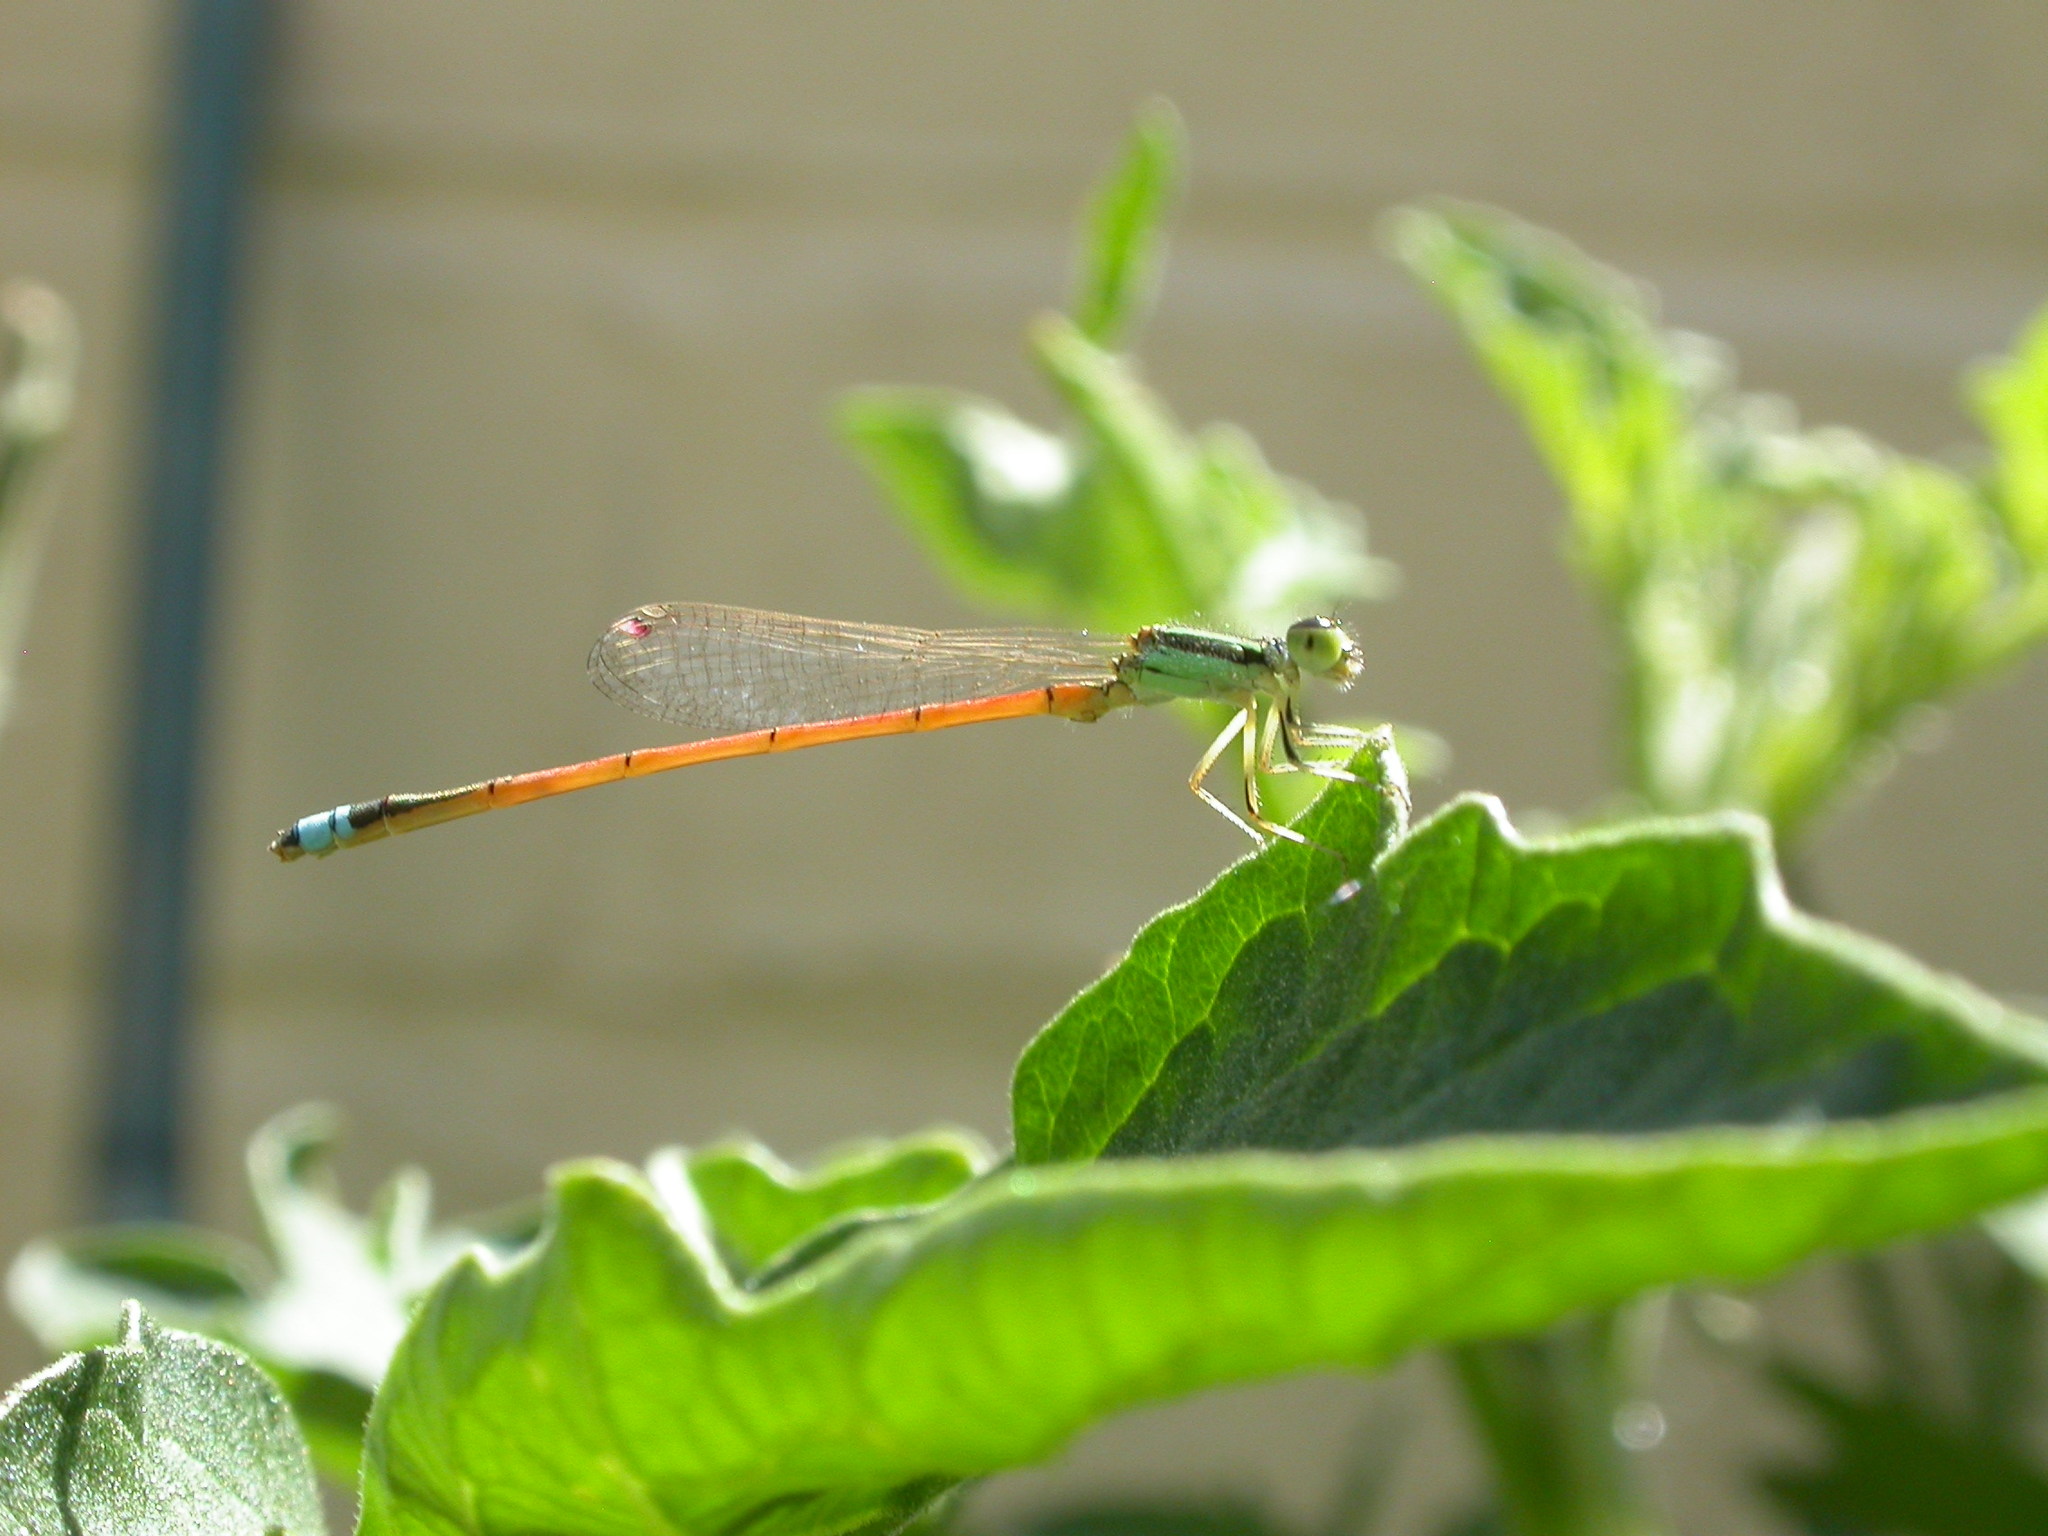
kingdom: Animalia
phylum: Arthropoda
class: Insecta
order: Odonata
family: Coenagrionidae
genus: Ischnura
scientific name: Ischnura aurora
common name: Gossamer damselfly
